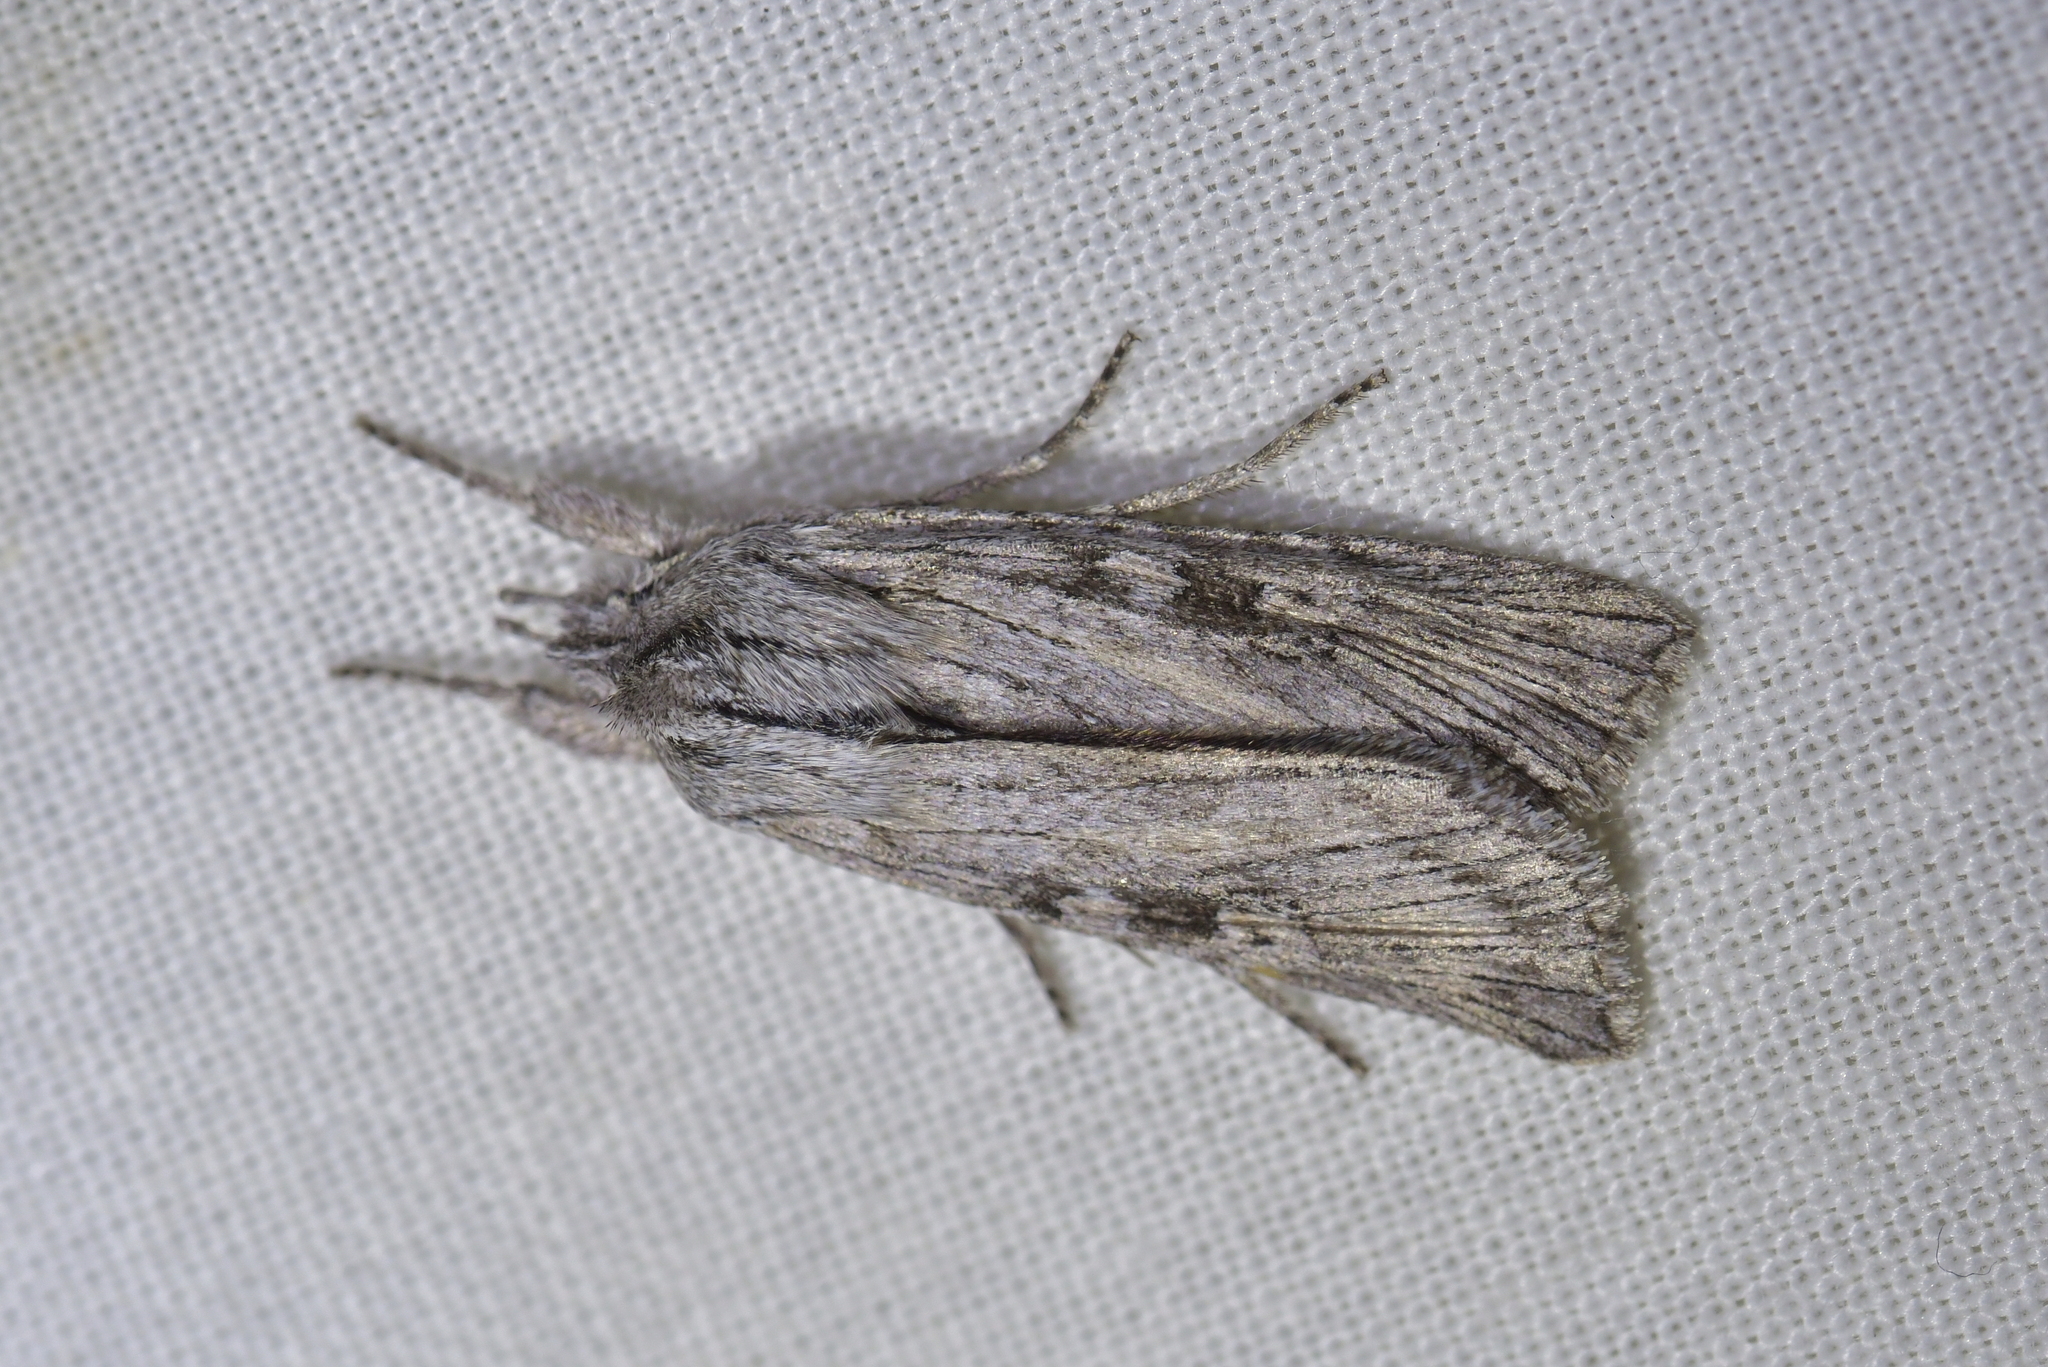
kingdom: Animalia
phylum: Arthropoda
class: Insecta
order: Lepidoptera
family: Noctuidae
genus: Physetica
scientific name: Physetica phricias
